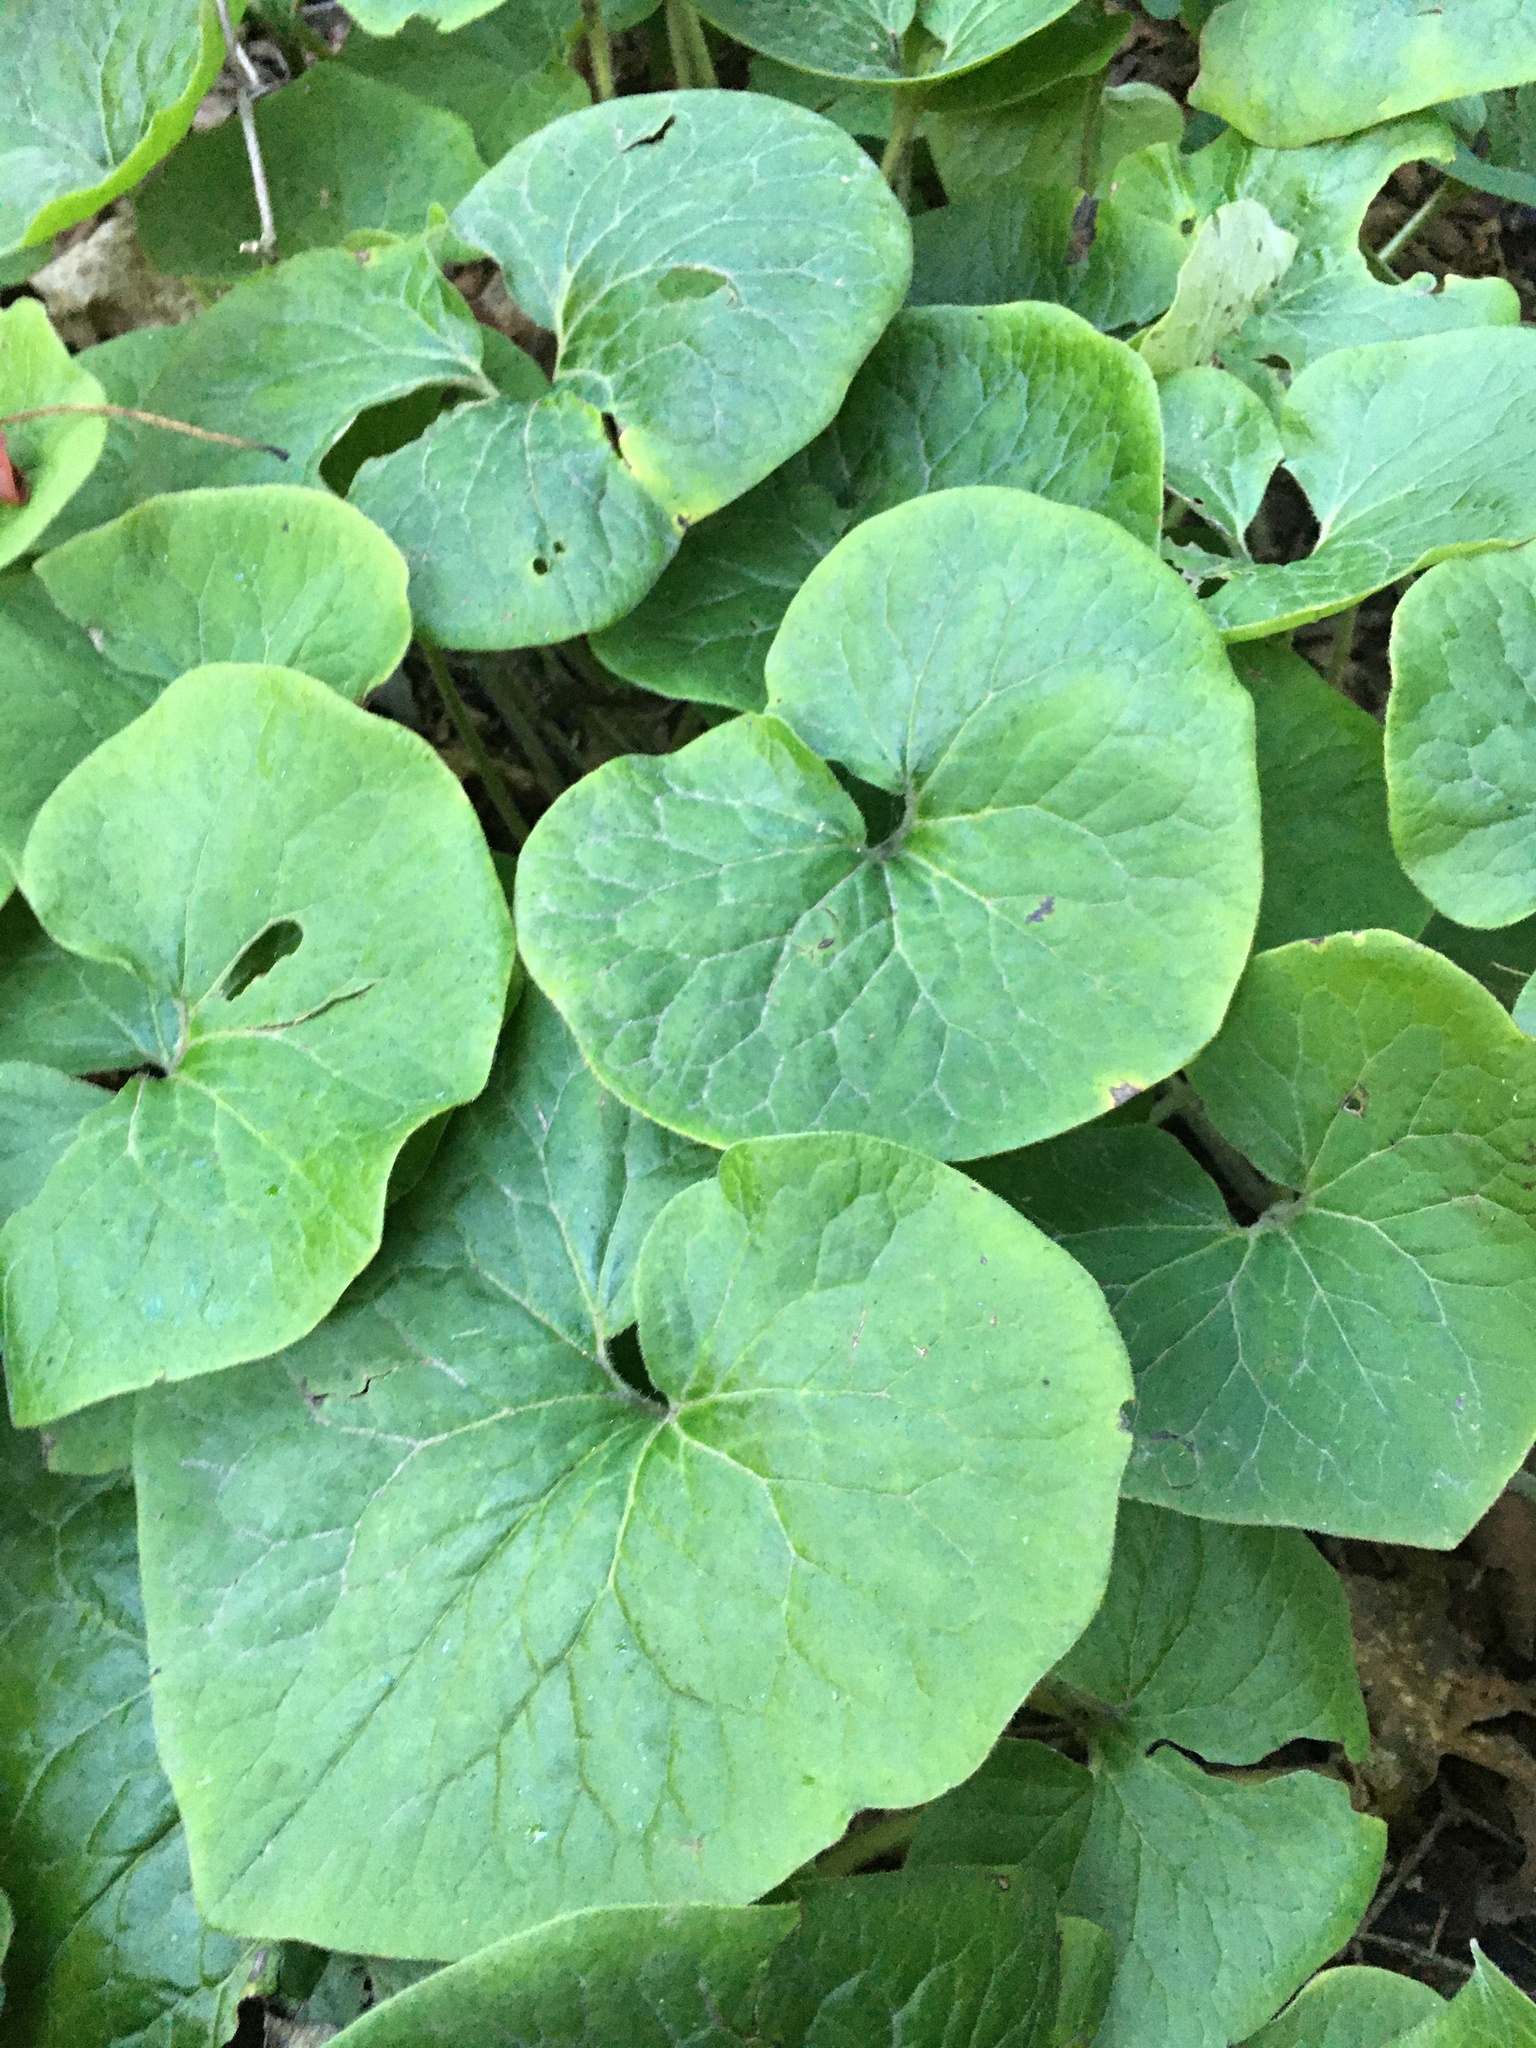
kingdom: Plantae
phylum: Tracheophyta
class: Magnoliopsida
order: Piperales
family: Aristolochiaceae
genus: Asarum
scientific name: Asarum canadense
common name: Wild ginger
